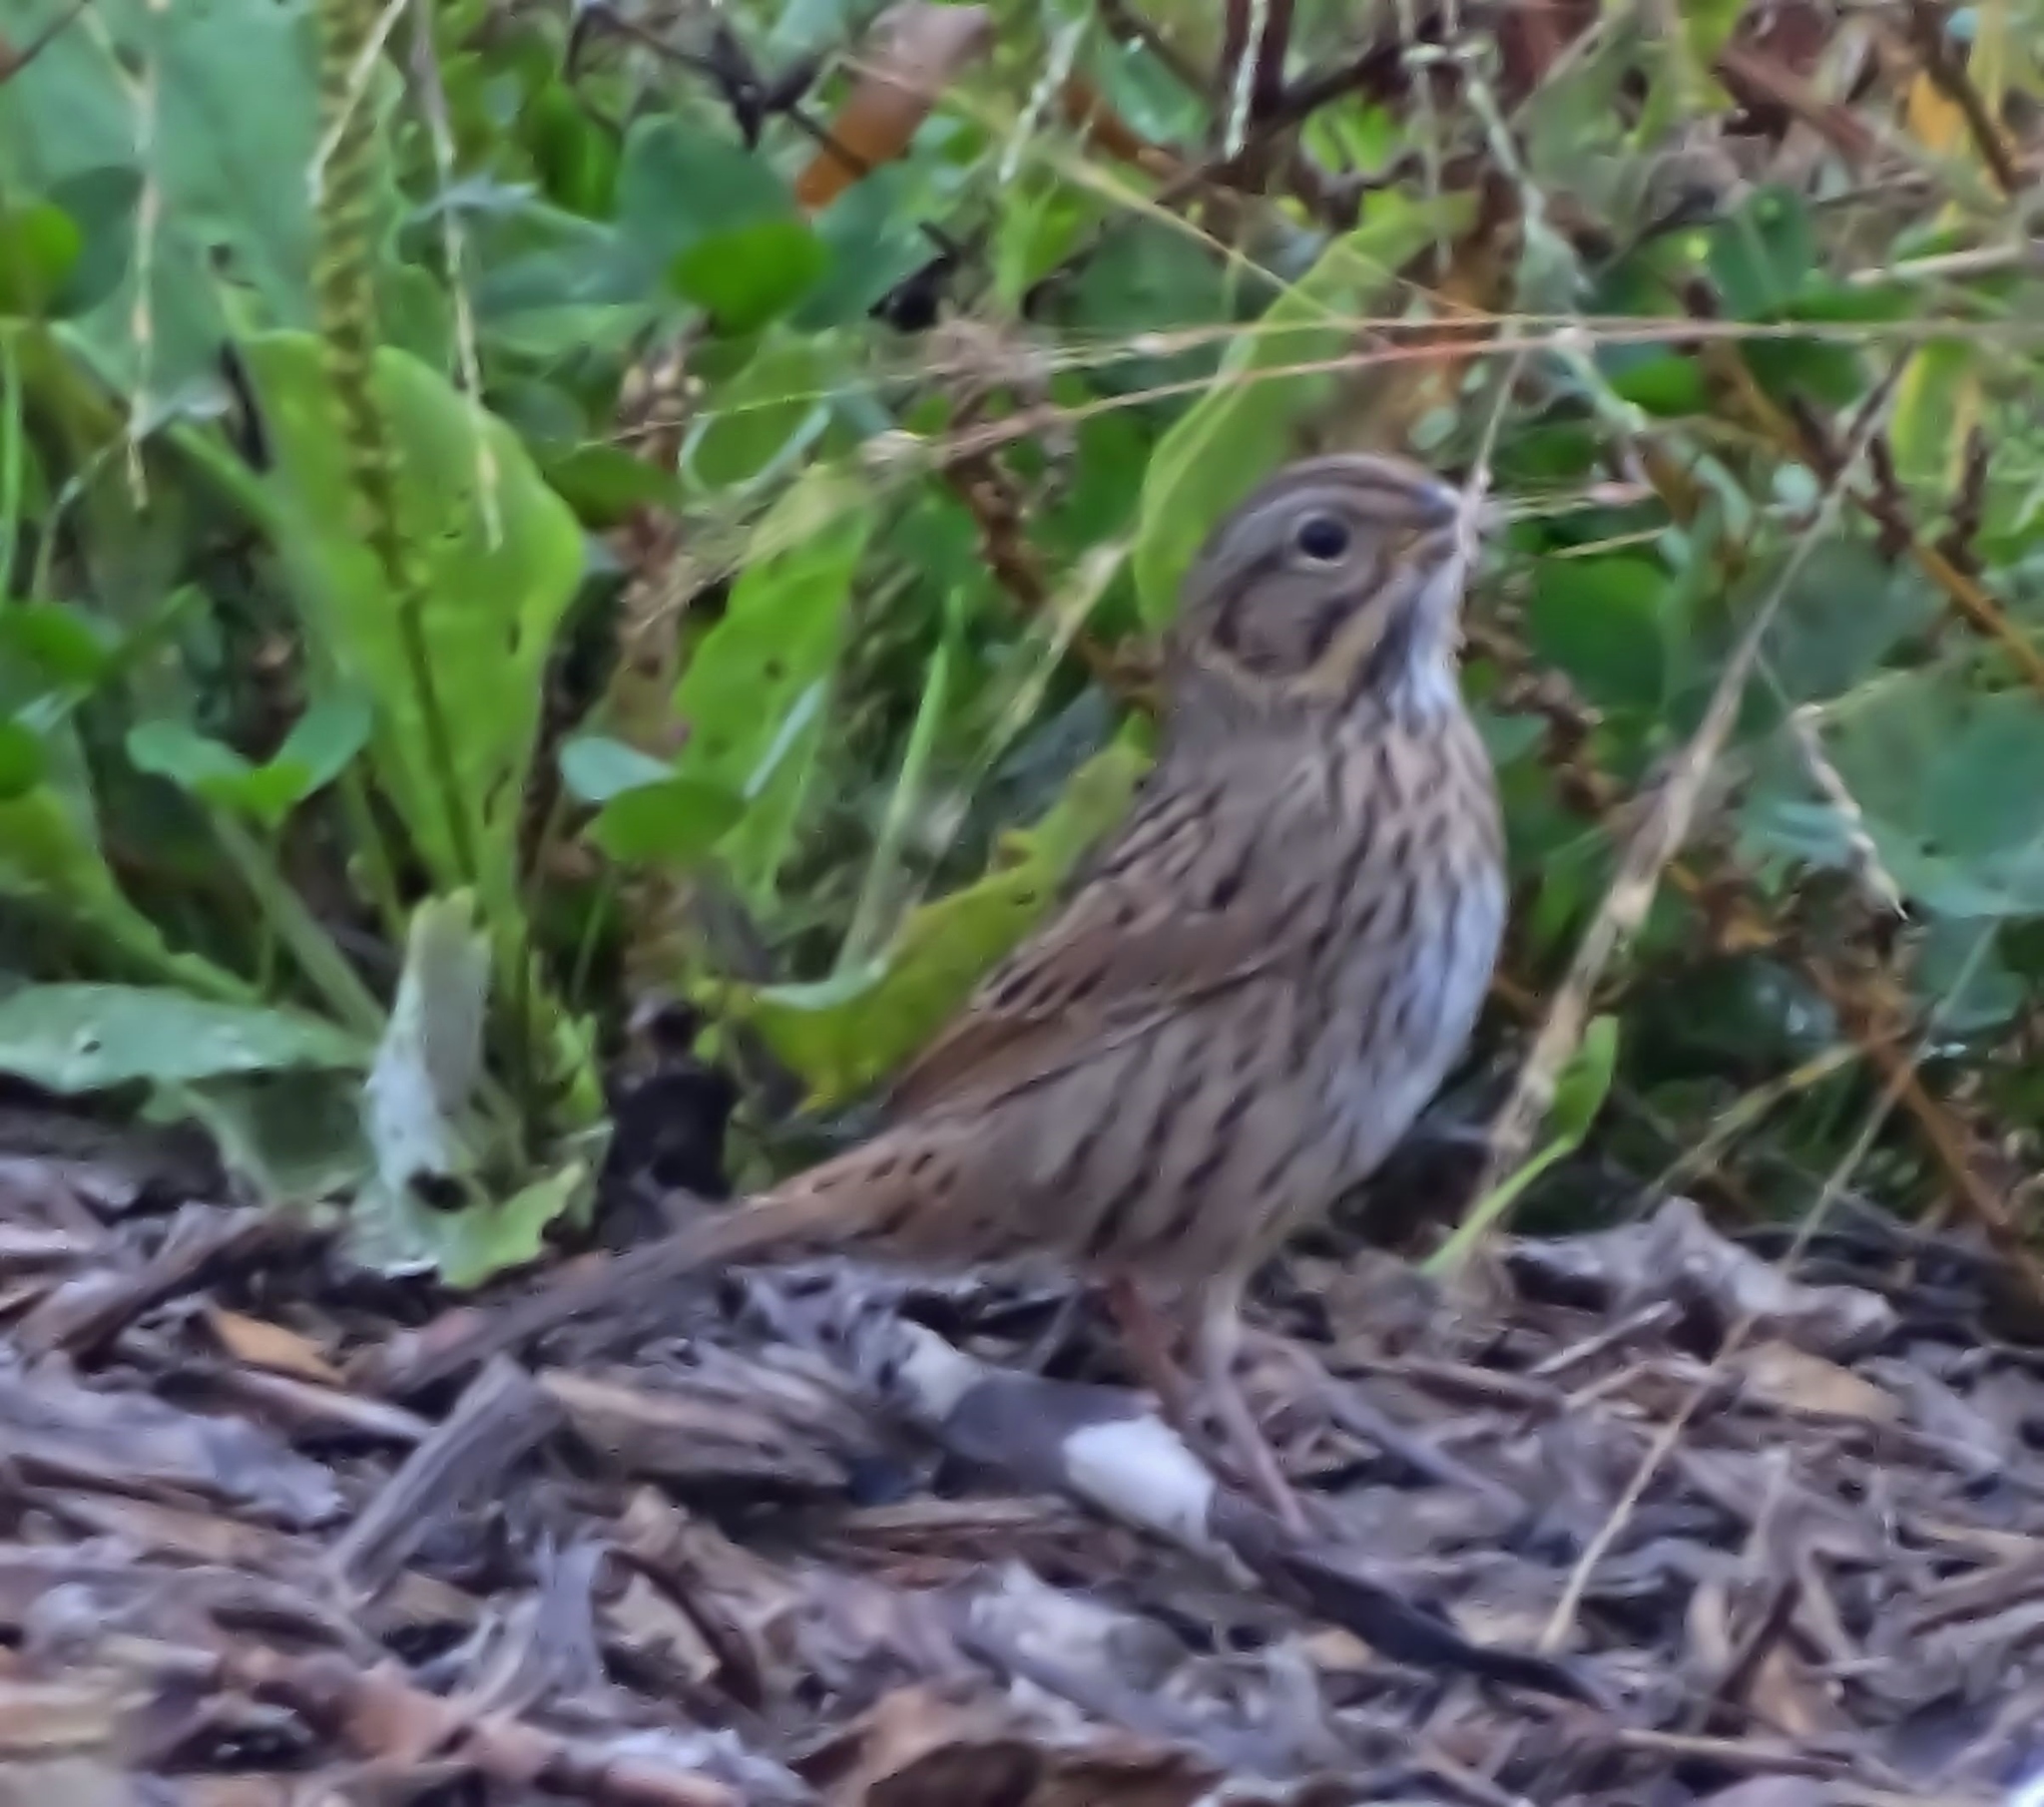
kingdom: Animalia
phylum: Chordata
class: Aves
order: Passeriformes
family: Passerellidae
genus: Melospiza
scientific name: Melospiza lincolnii
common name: Lincoln's sparrow
